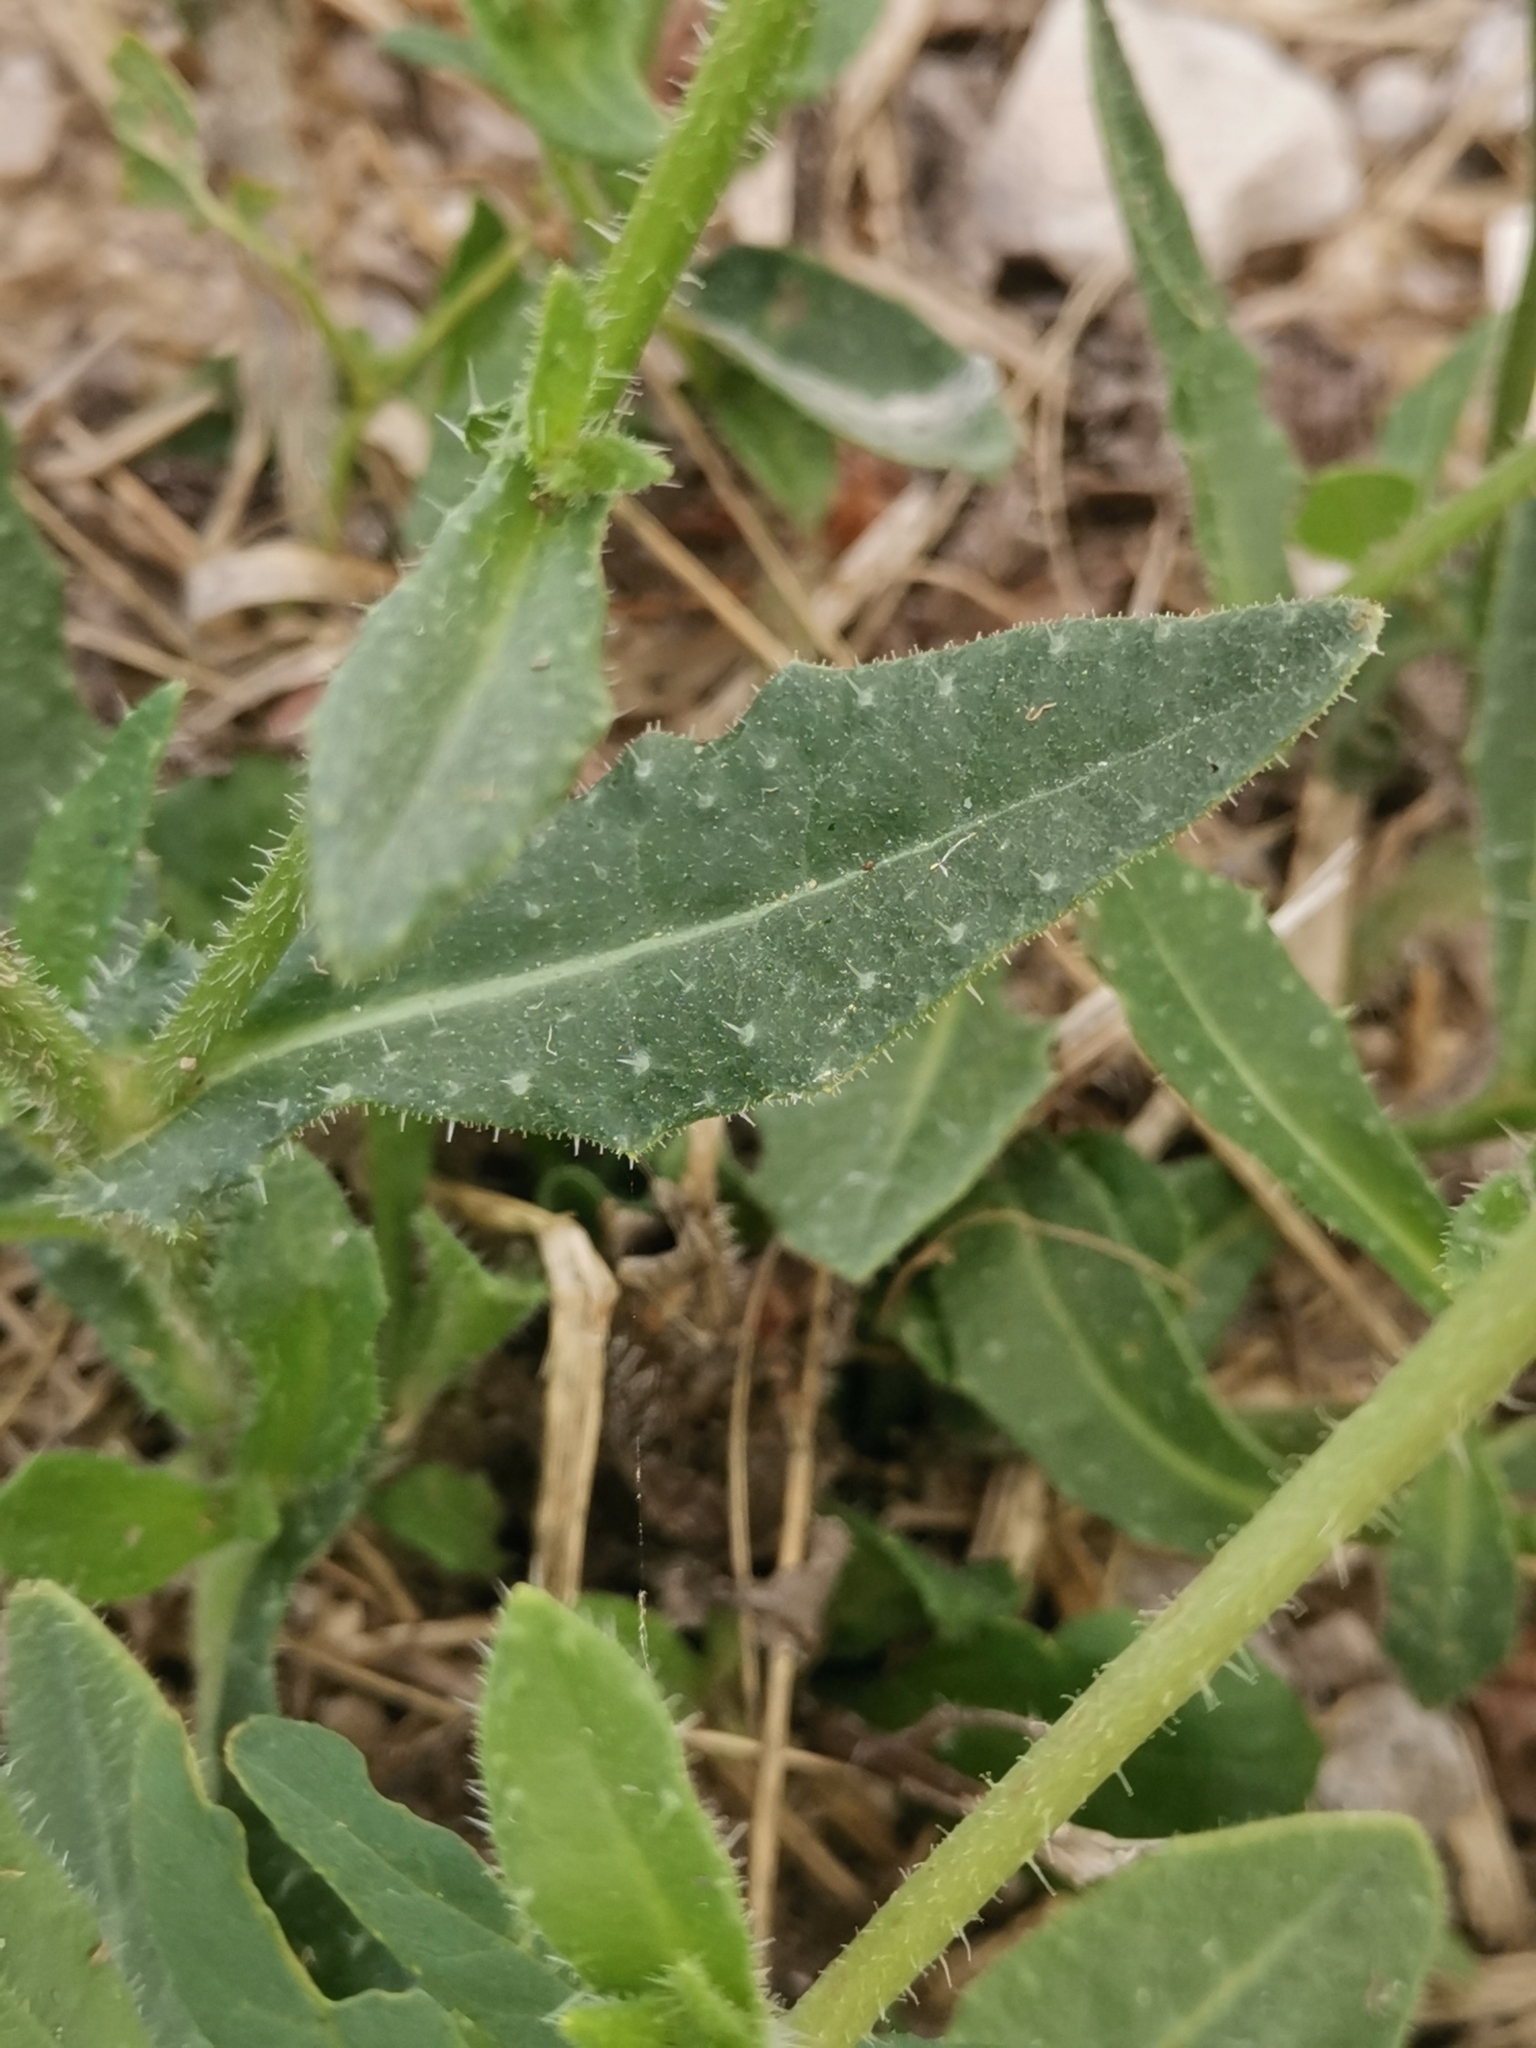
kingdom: Plantae
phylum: Tracheophyta
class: Magnoliopsida
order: Asterales
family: Asteraceae
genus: Helminthotheca
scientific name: Helminthotheca echioides
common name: Ox-tongue
